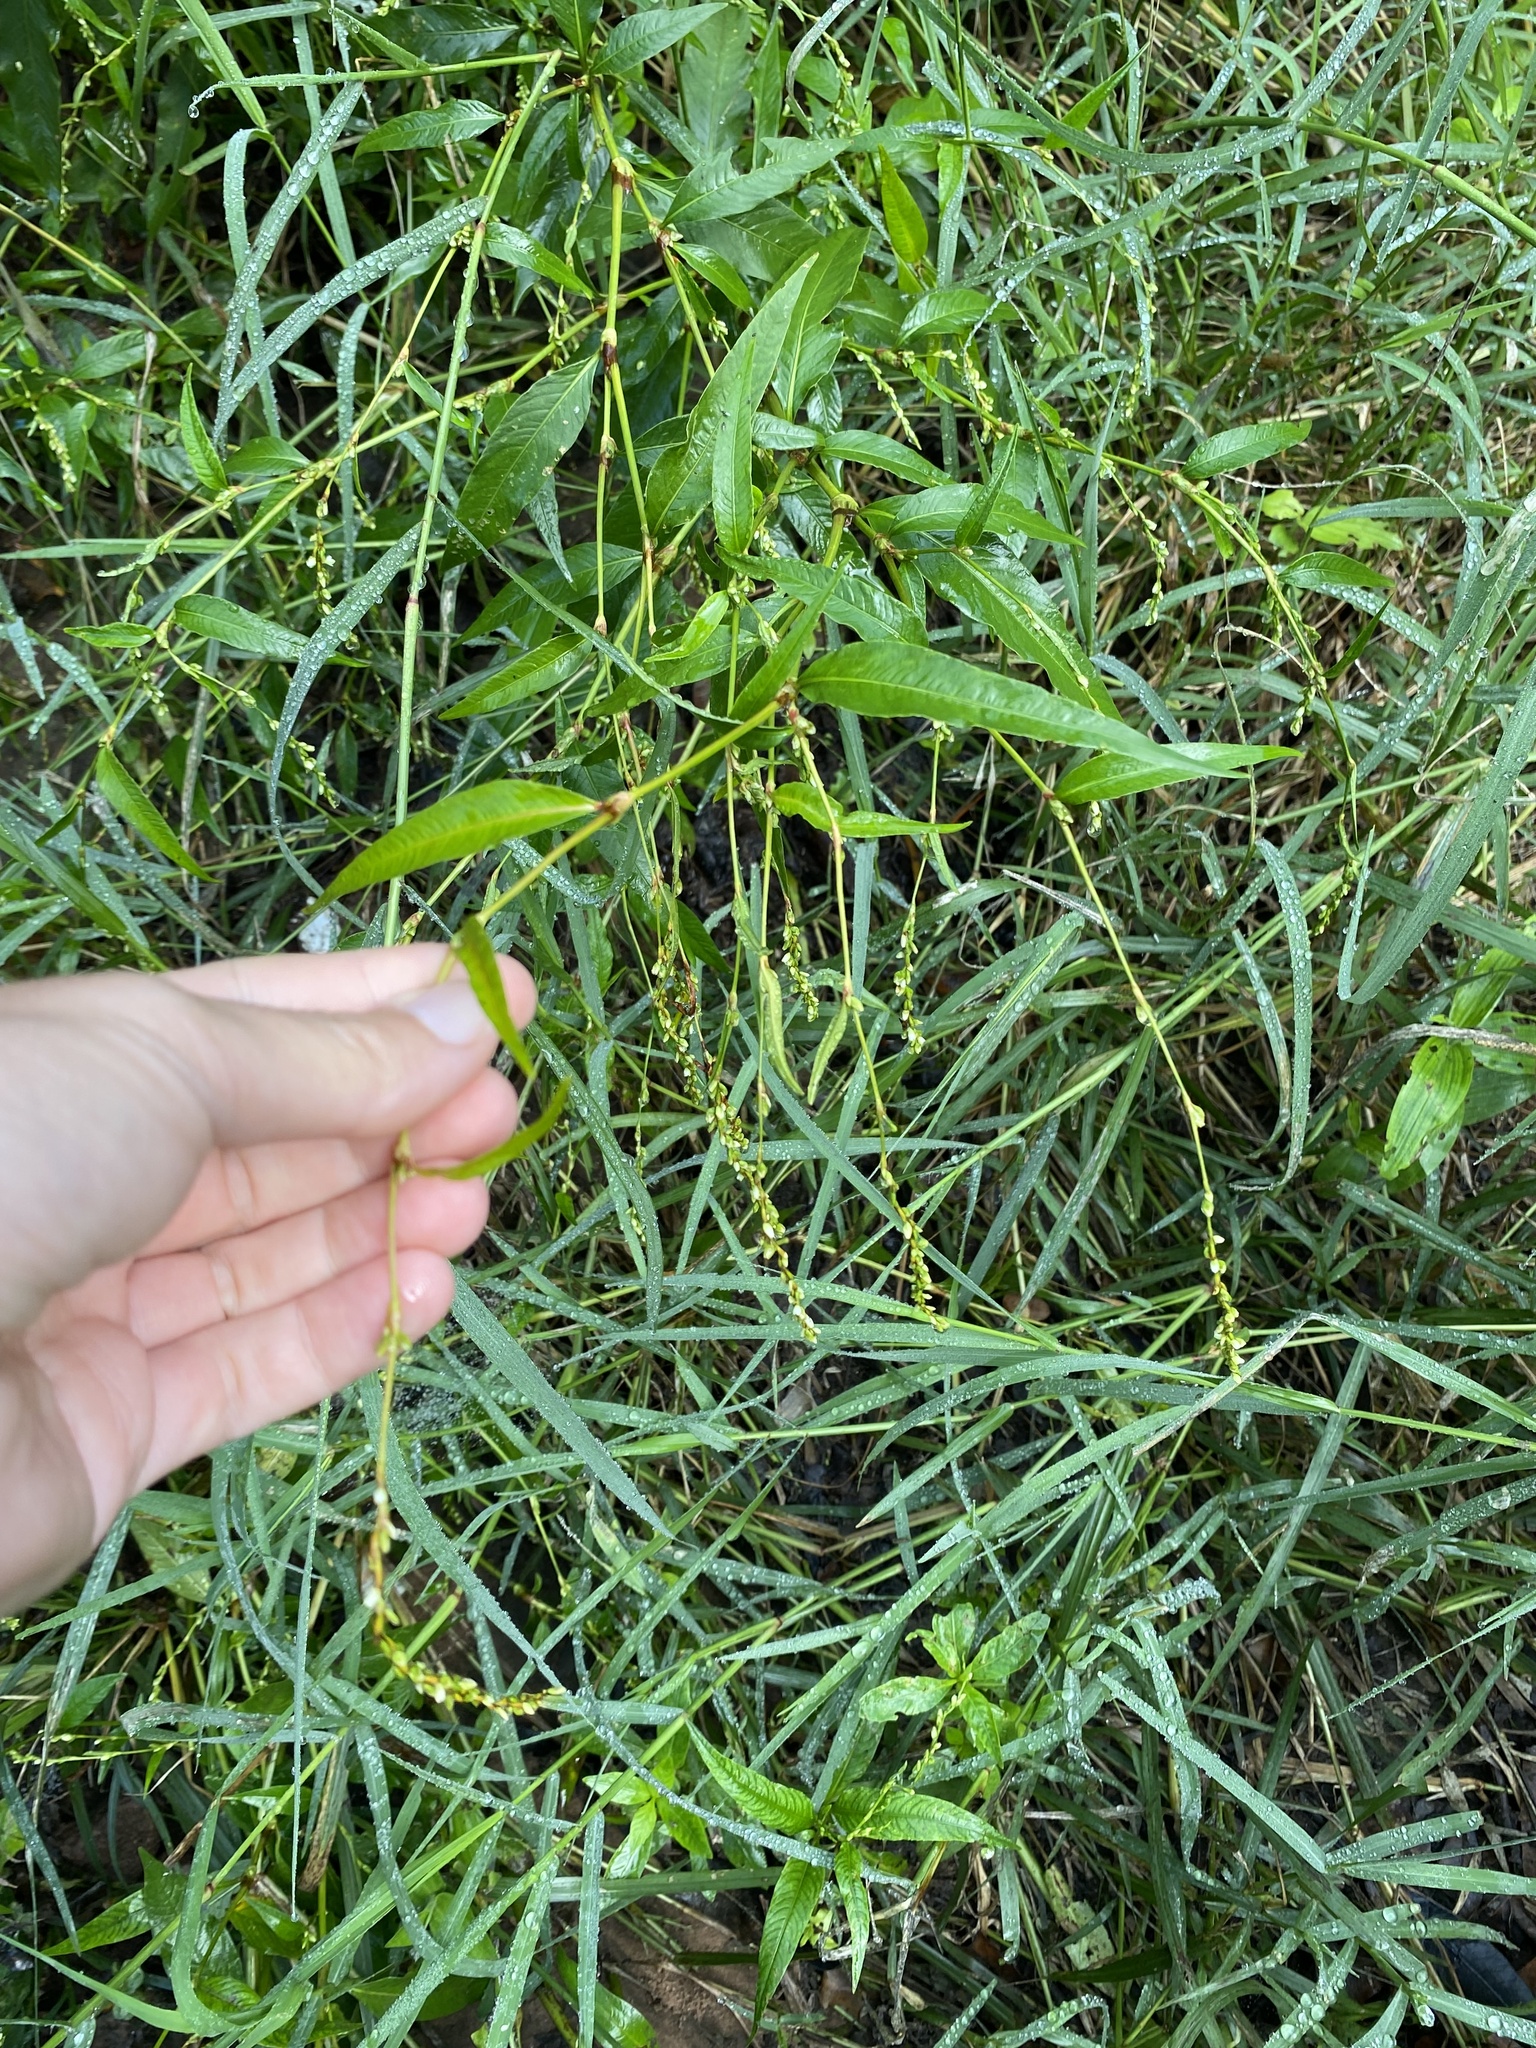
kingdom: Plantae
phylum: Tracheophyta
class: Magnoliopsida
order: Caryophyllales
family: Polygonaceae
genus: Persicaria
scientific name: Persicaria hydropiper
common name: Water-pepper
